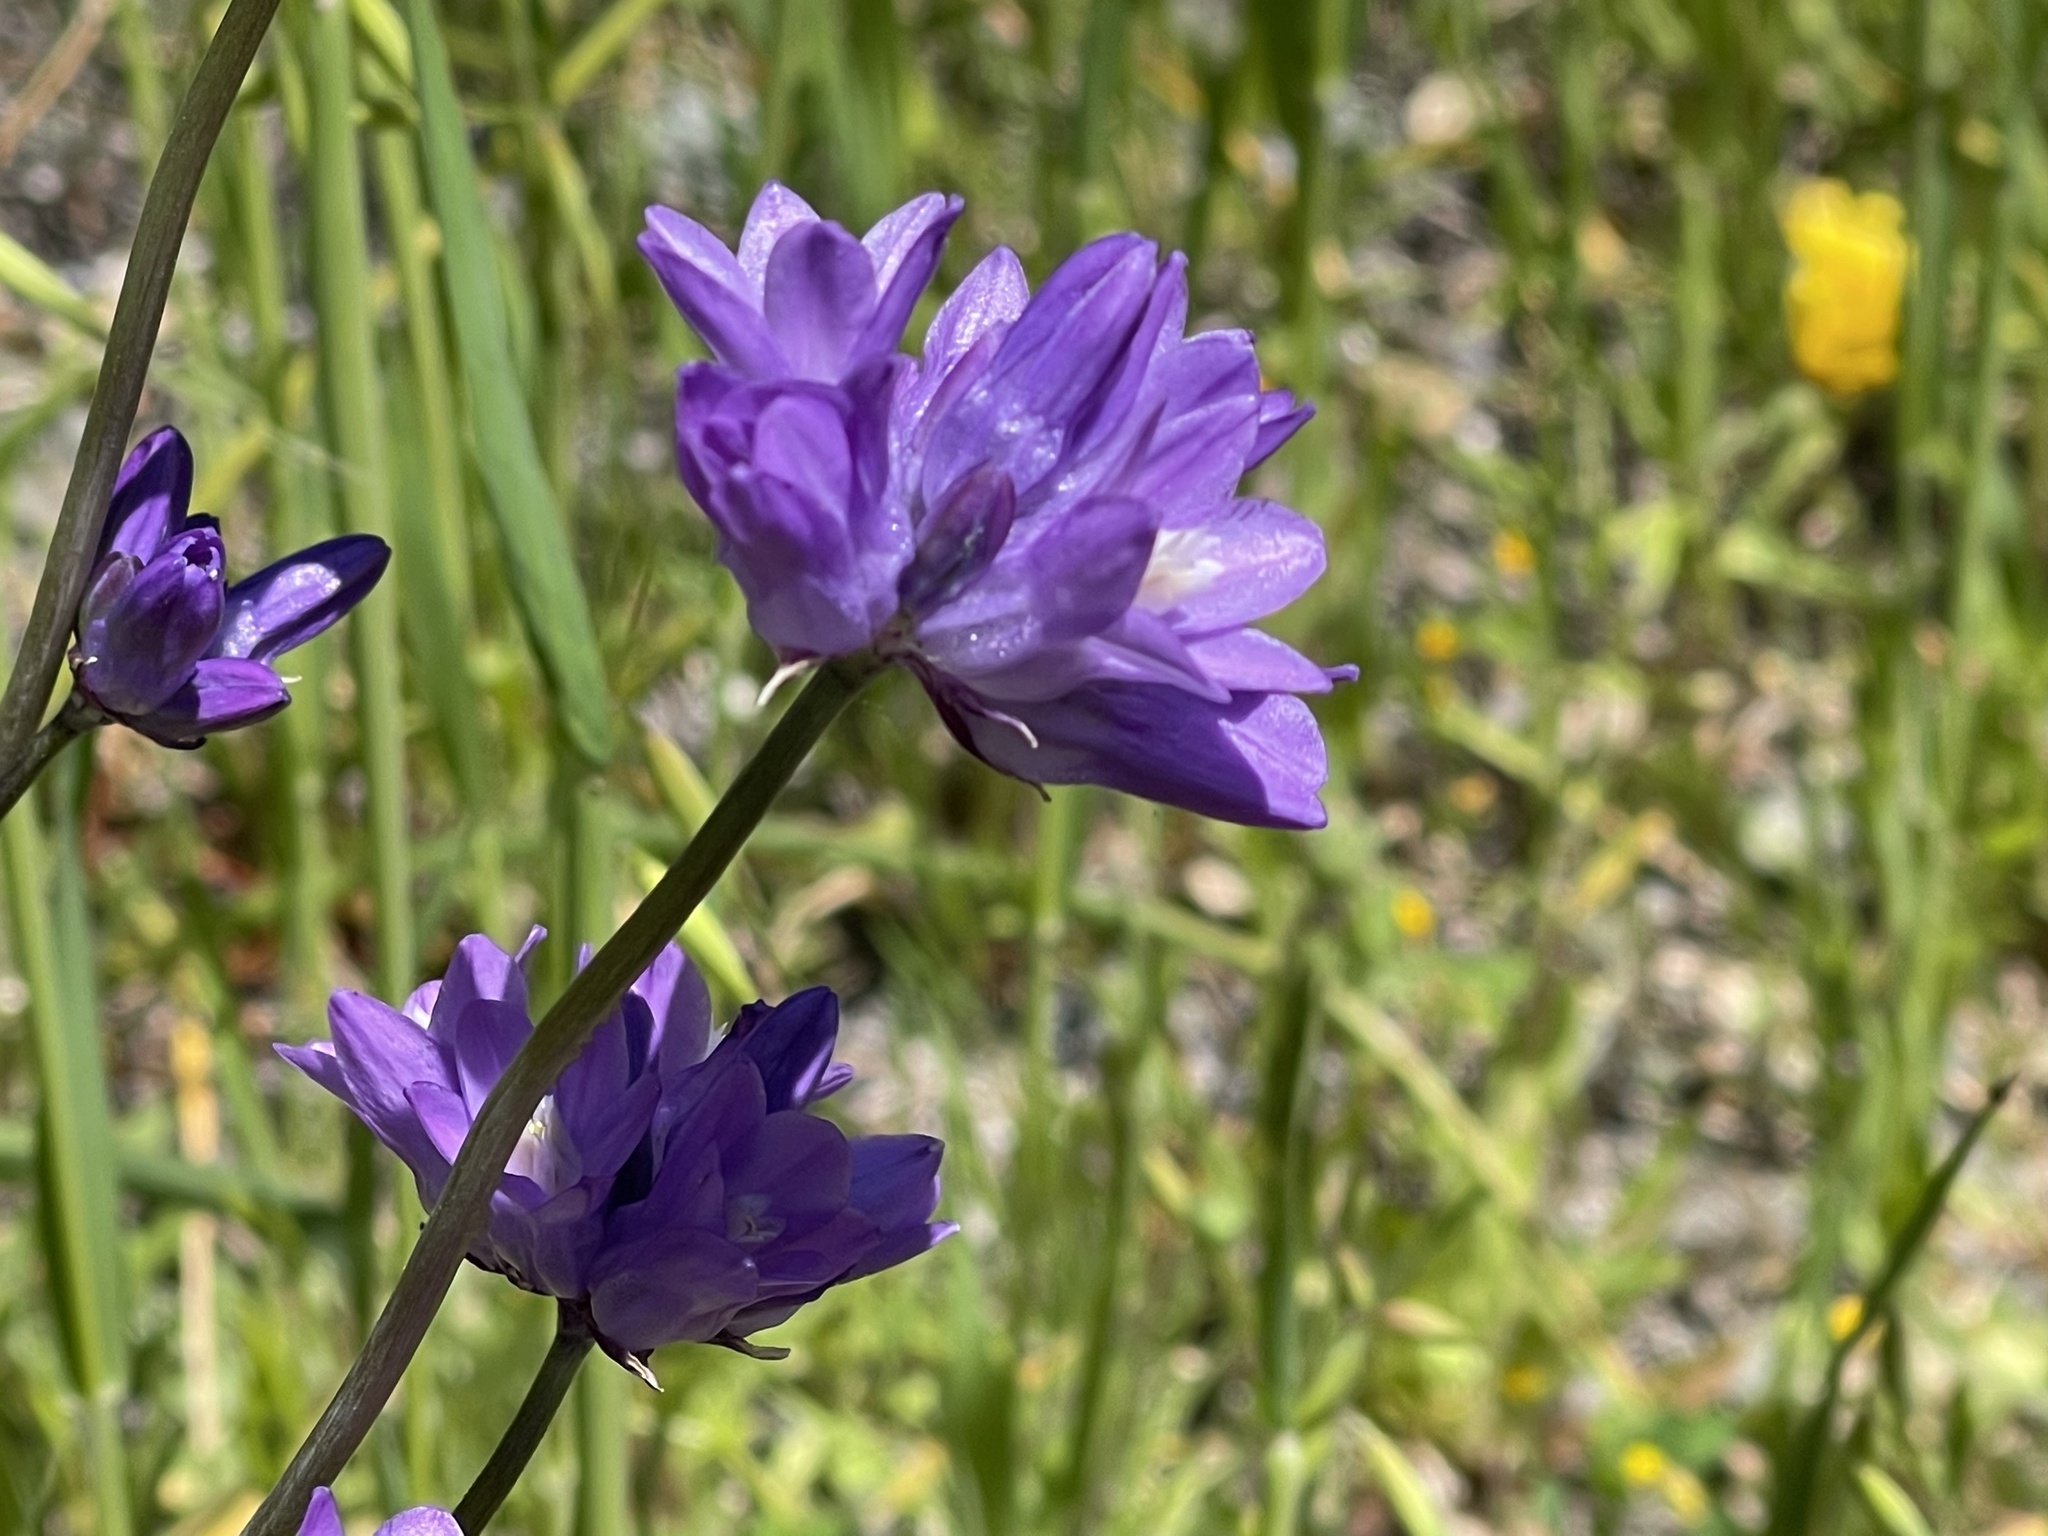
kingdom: Plantae
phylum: Tracheophyta
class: Liliopsida
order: Asparagales
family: Asparagaceae
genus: Dipterostemon
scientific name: Dipterostemon capitatus
